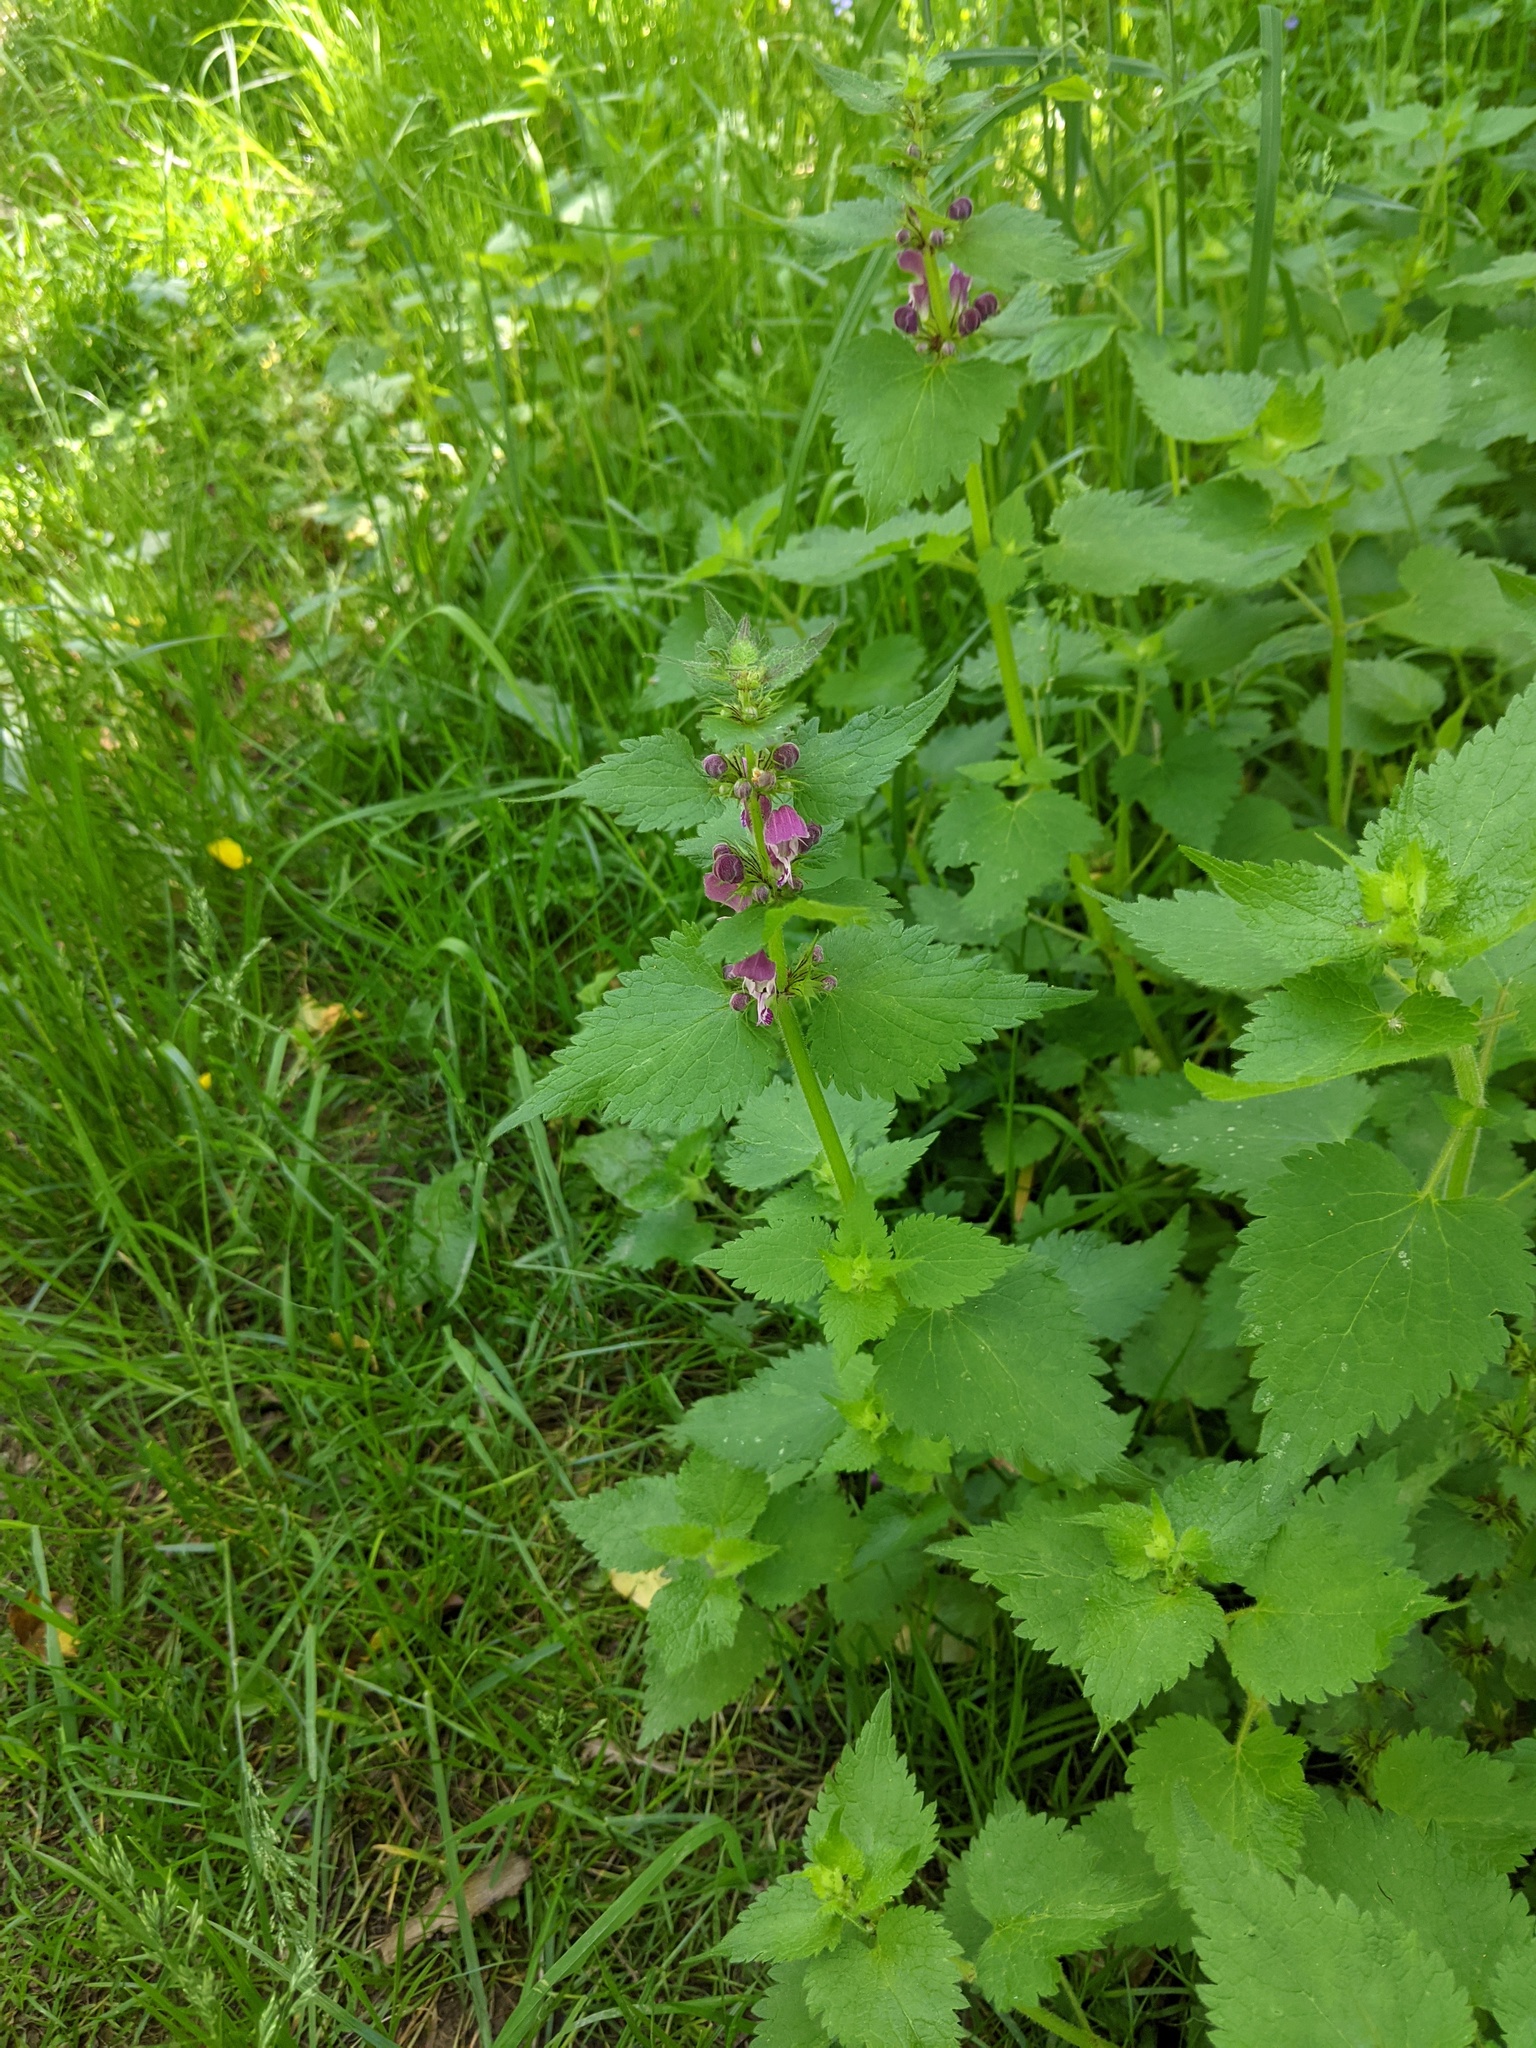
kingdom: Plantae
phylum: Tracheophyta
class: Magnoliopsida
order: Lamiales
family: Lamiaceae
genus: Lamium
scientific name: Lamium maculatum
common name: Spotted dead-nettle
